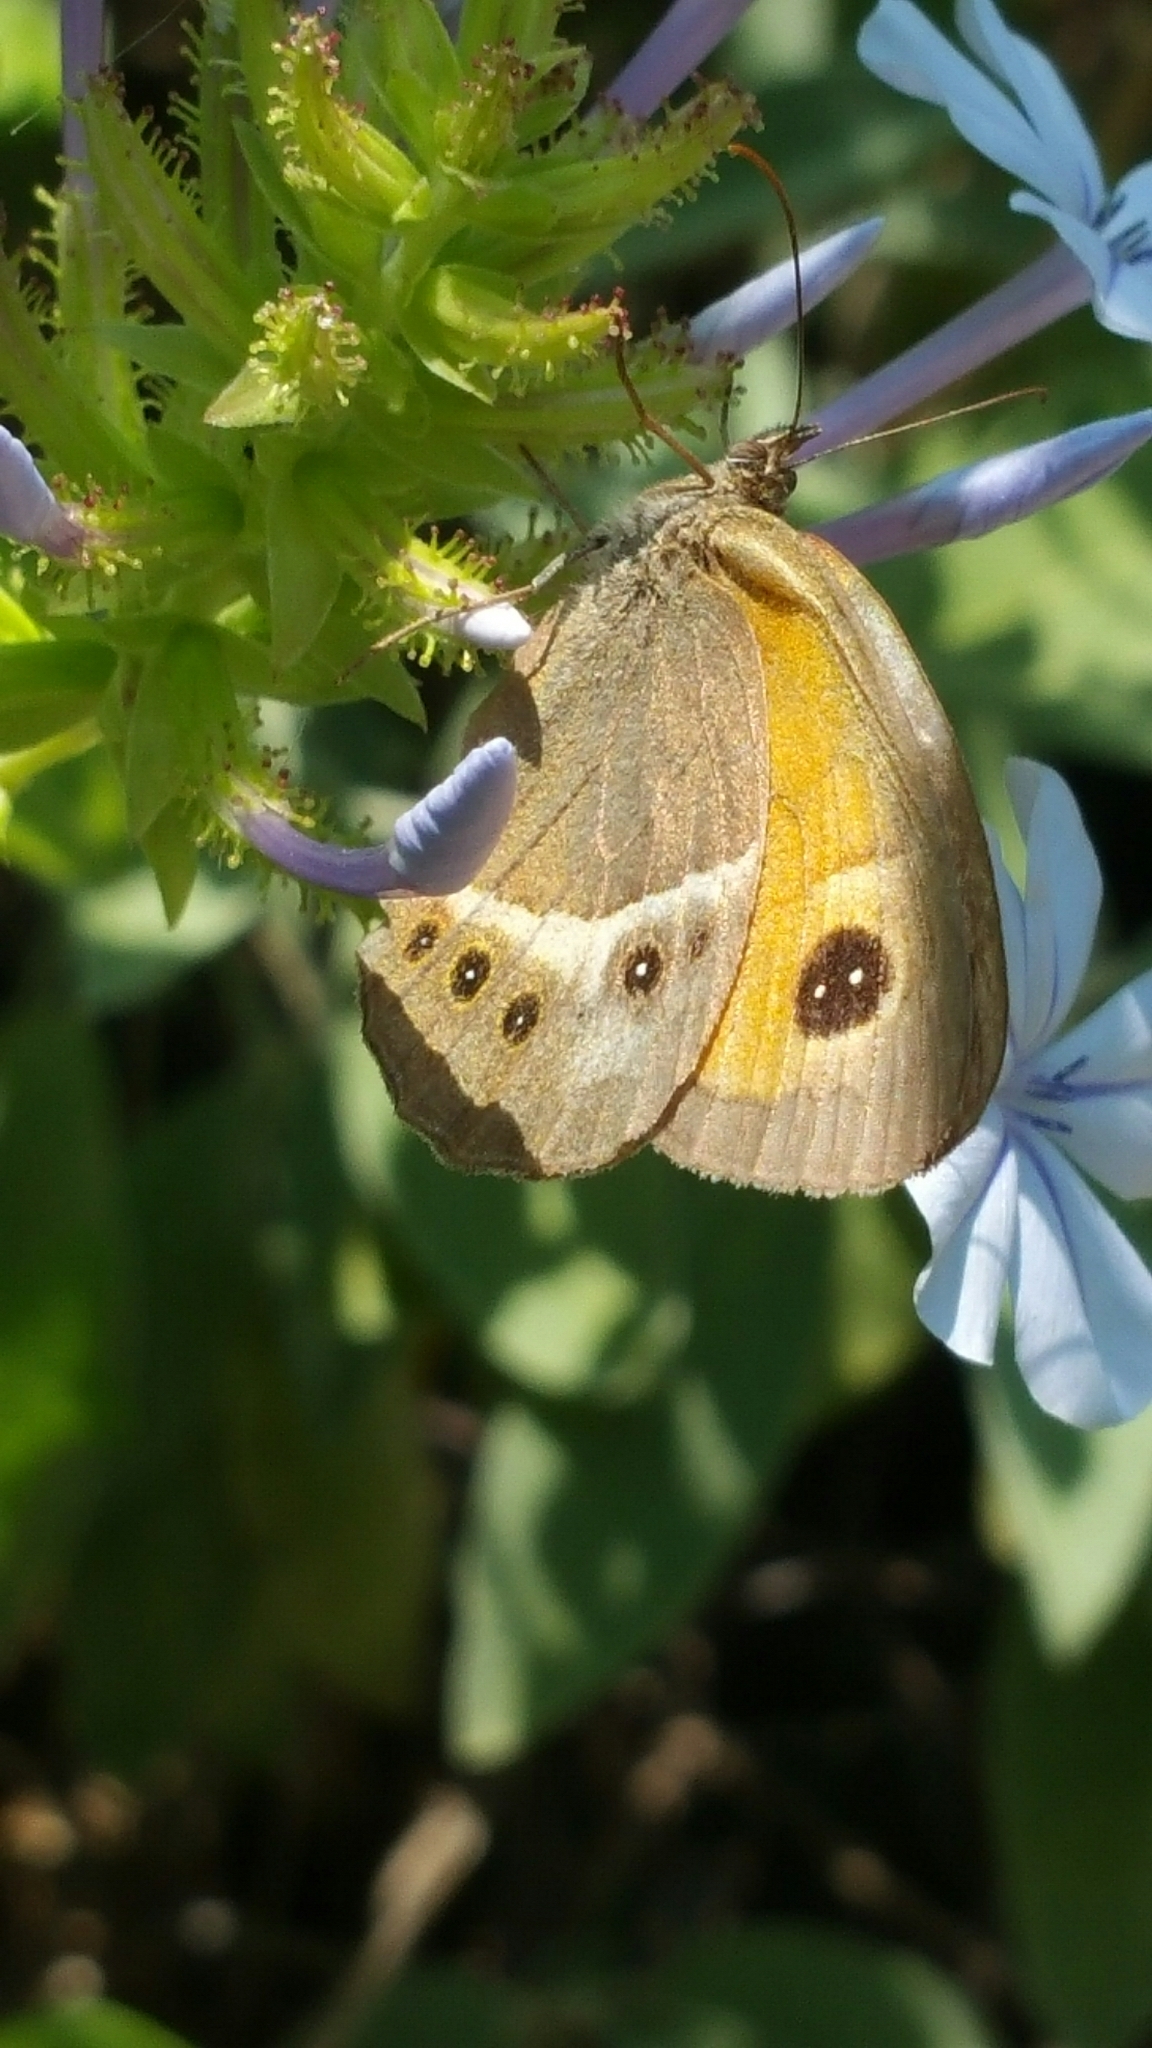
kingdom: Animalia
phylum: Arthropoda
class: Insecta
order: Lepidoptera
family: Nymphalidae
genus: Pyronia
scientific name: Pyronia bathseba
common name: Spanish gatekeeper
